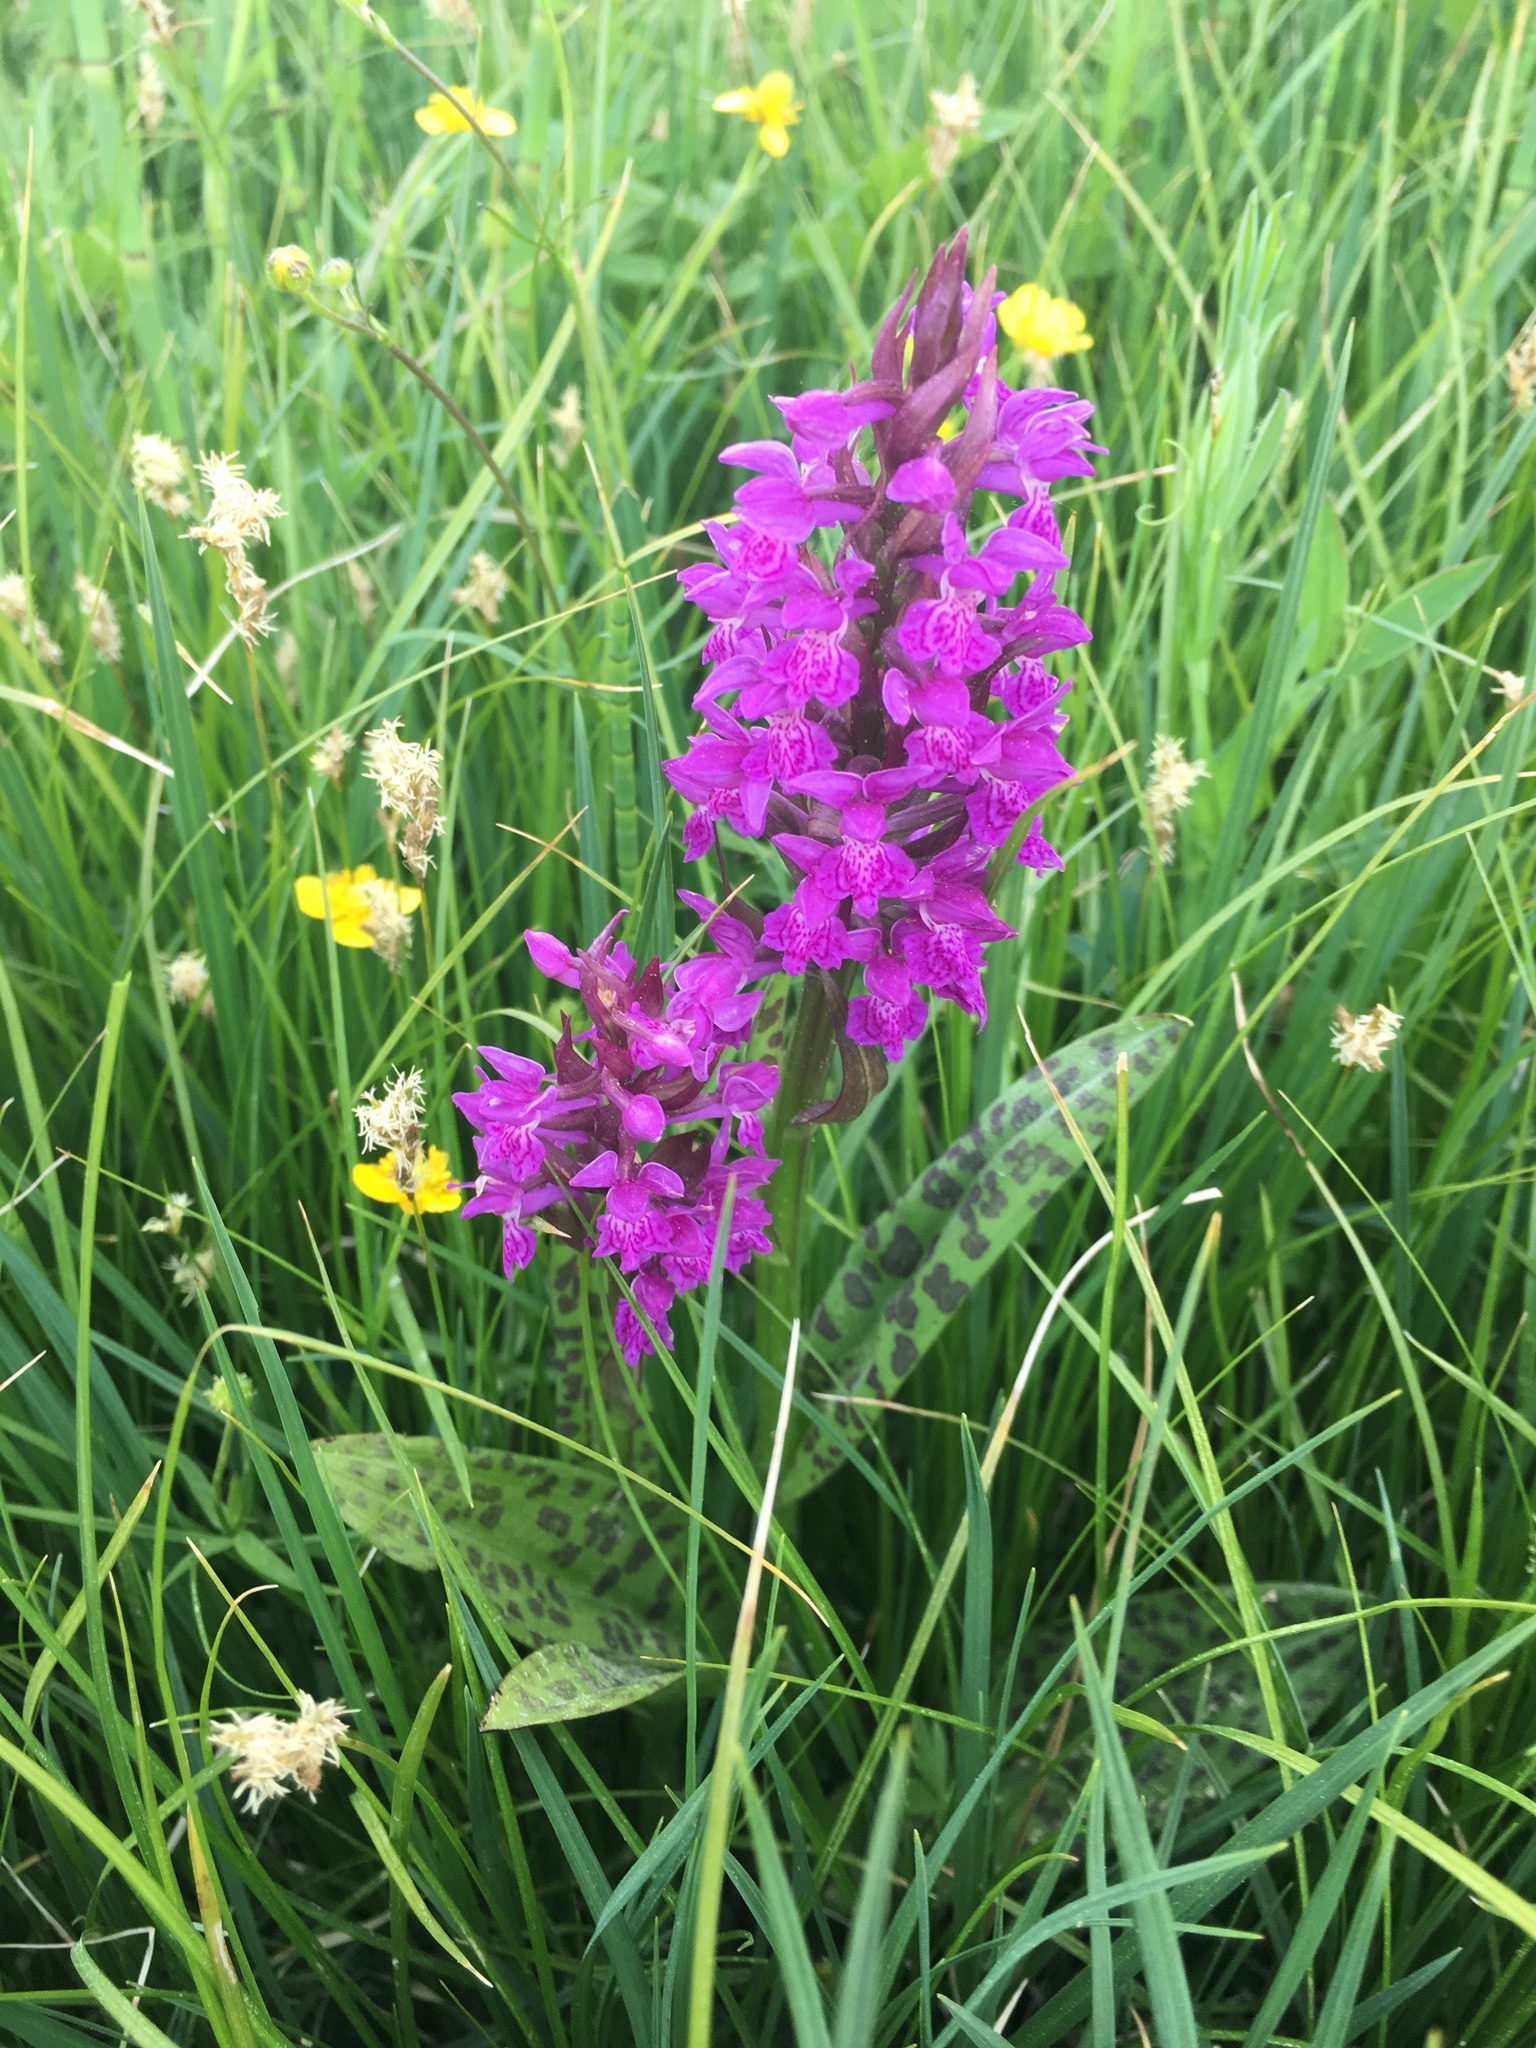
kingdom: Plantae
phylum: Tracheophyta
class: Liliopsida
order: Asparagales
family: Orchidaceae
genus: Dactylorhiza
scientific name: Dactylorhiza majalis
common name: Marsh orchid
